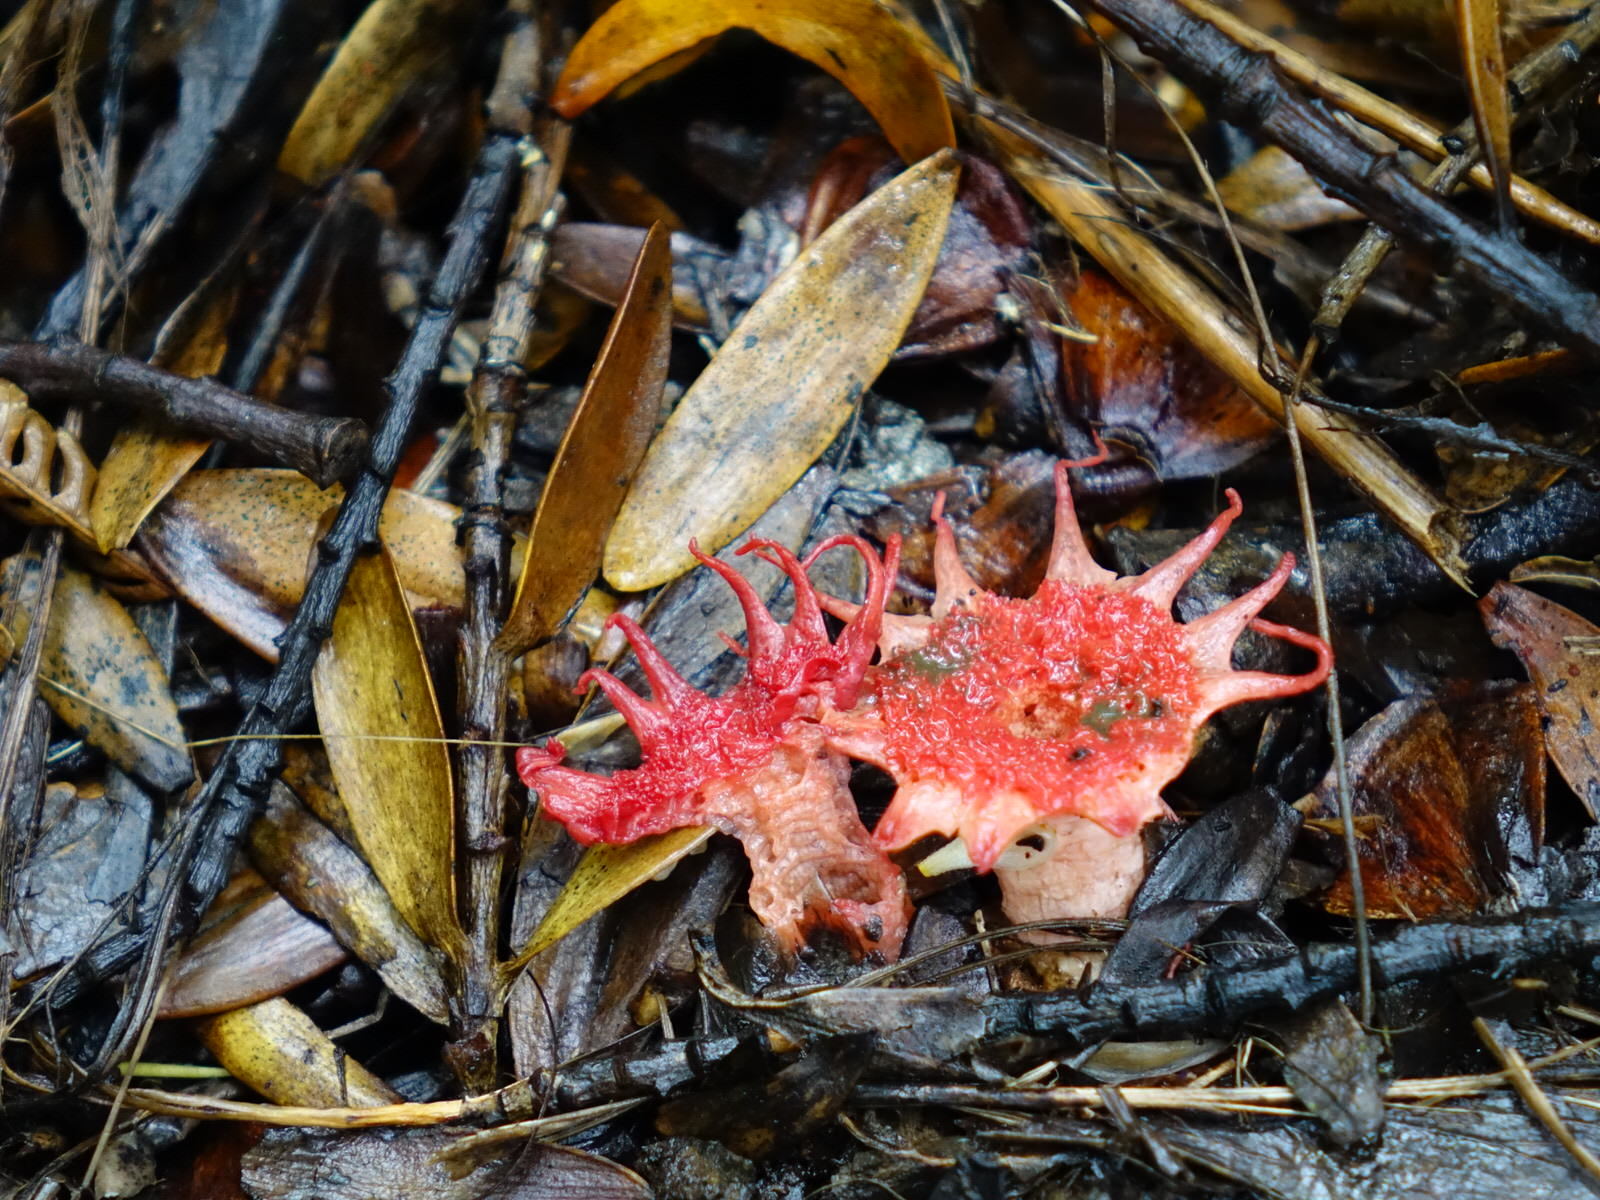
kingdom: Fungi
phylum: Basidiomycota
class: Agaricomycetes
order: Phallales
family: Phallaceae
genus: Aseroe
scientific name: Aseroe rubra
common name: Starfish fungus
